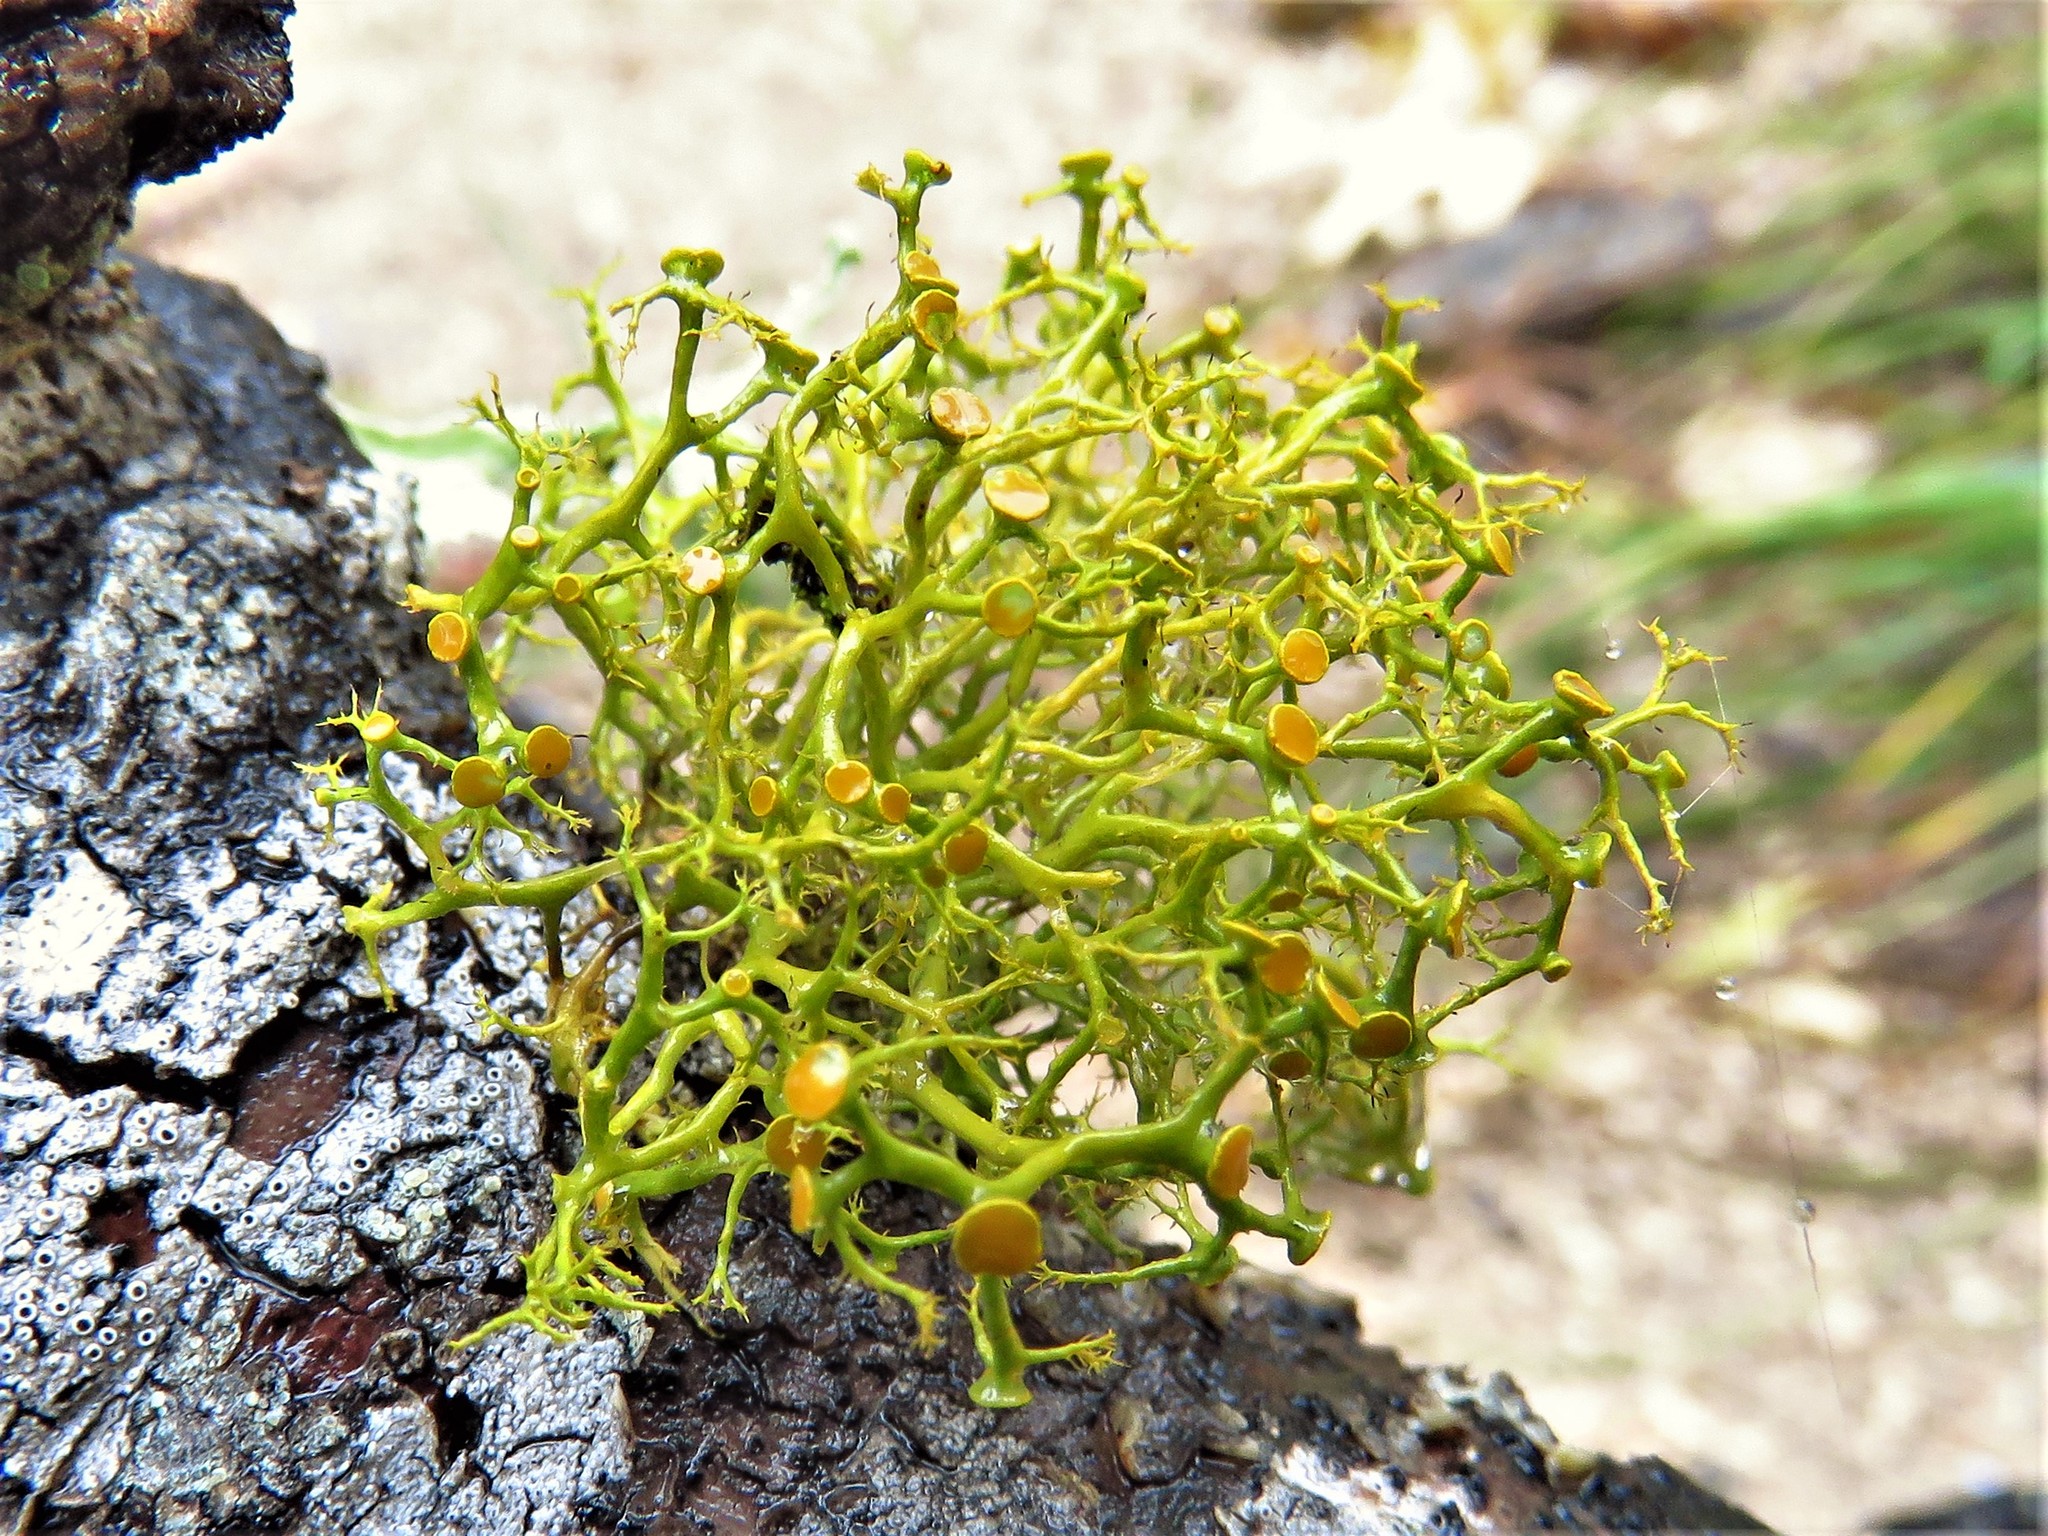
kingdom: Fungi
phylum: Ascomycota
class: Lecanoromycetes
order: Teloschistales
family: Teloschistaceae
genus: Teloschistes
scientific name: Teloschistes exilis
